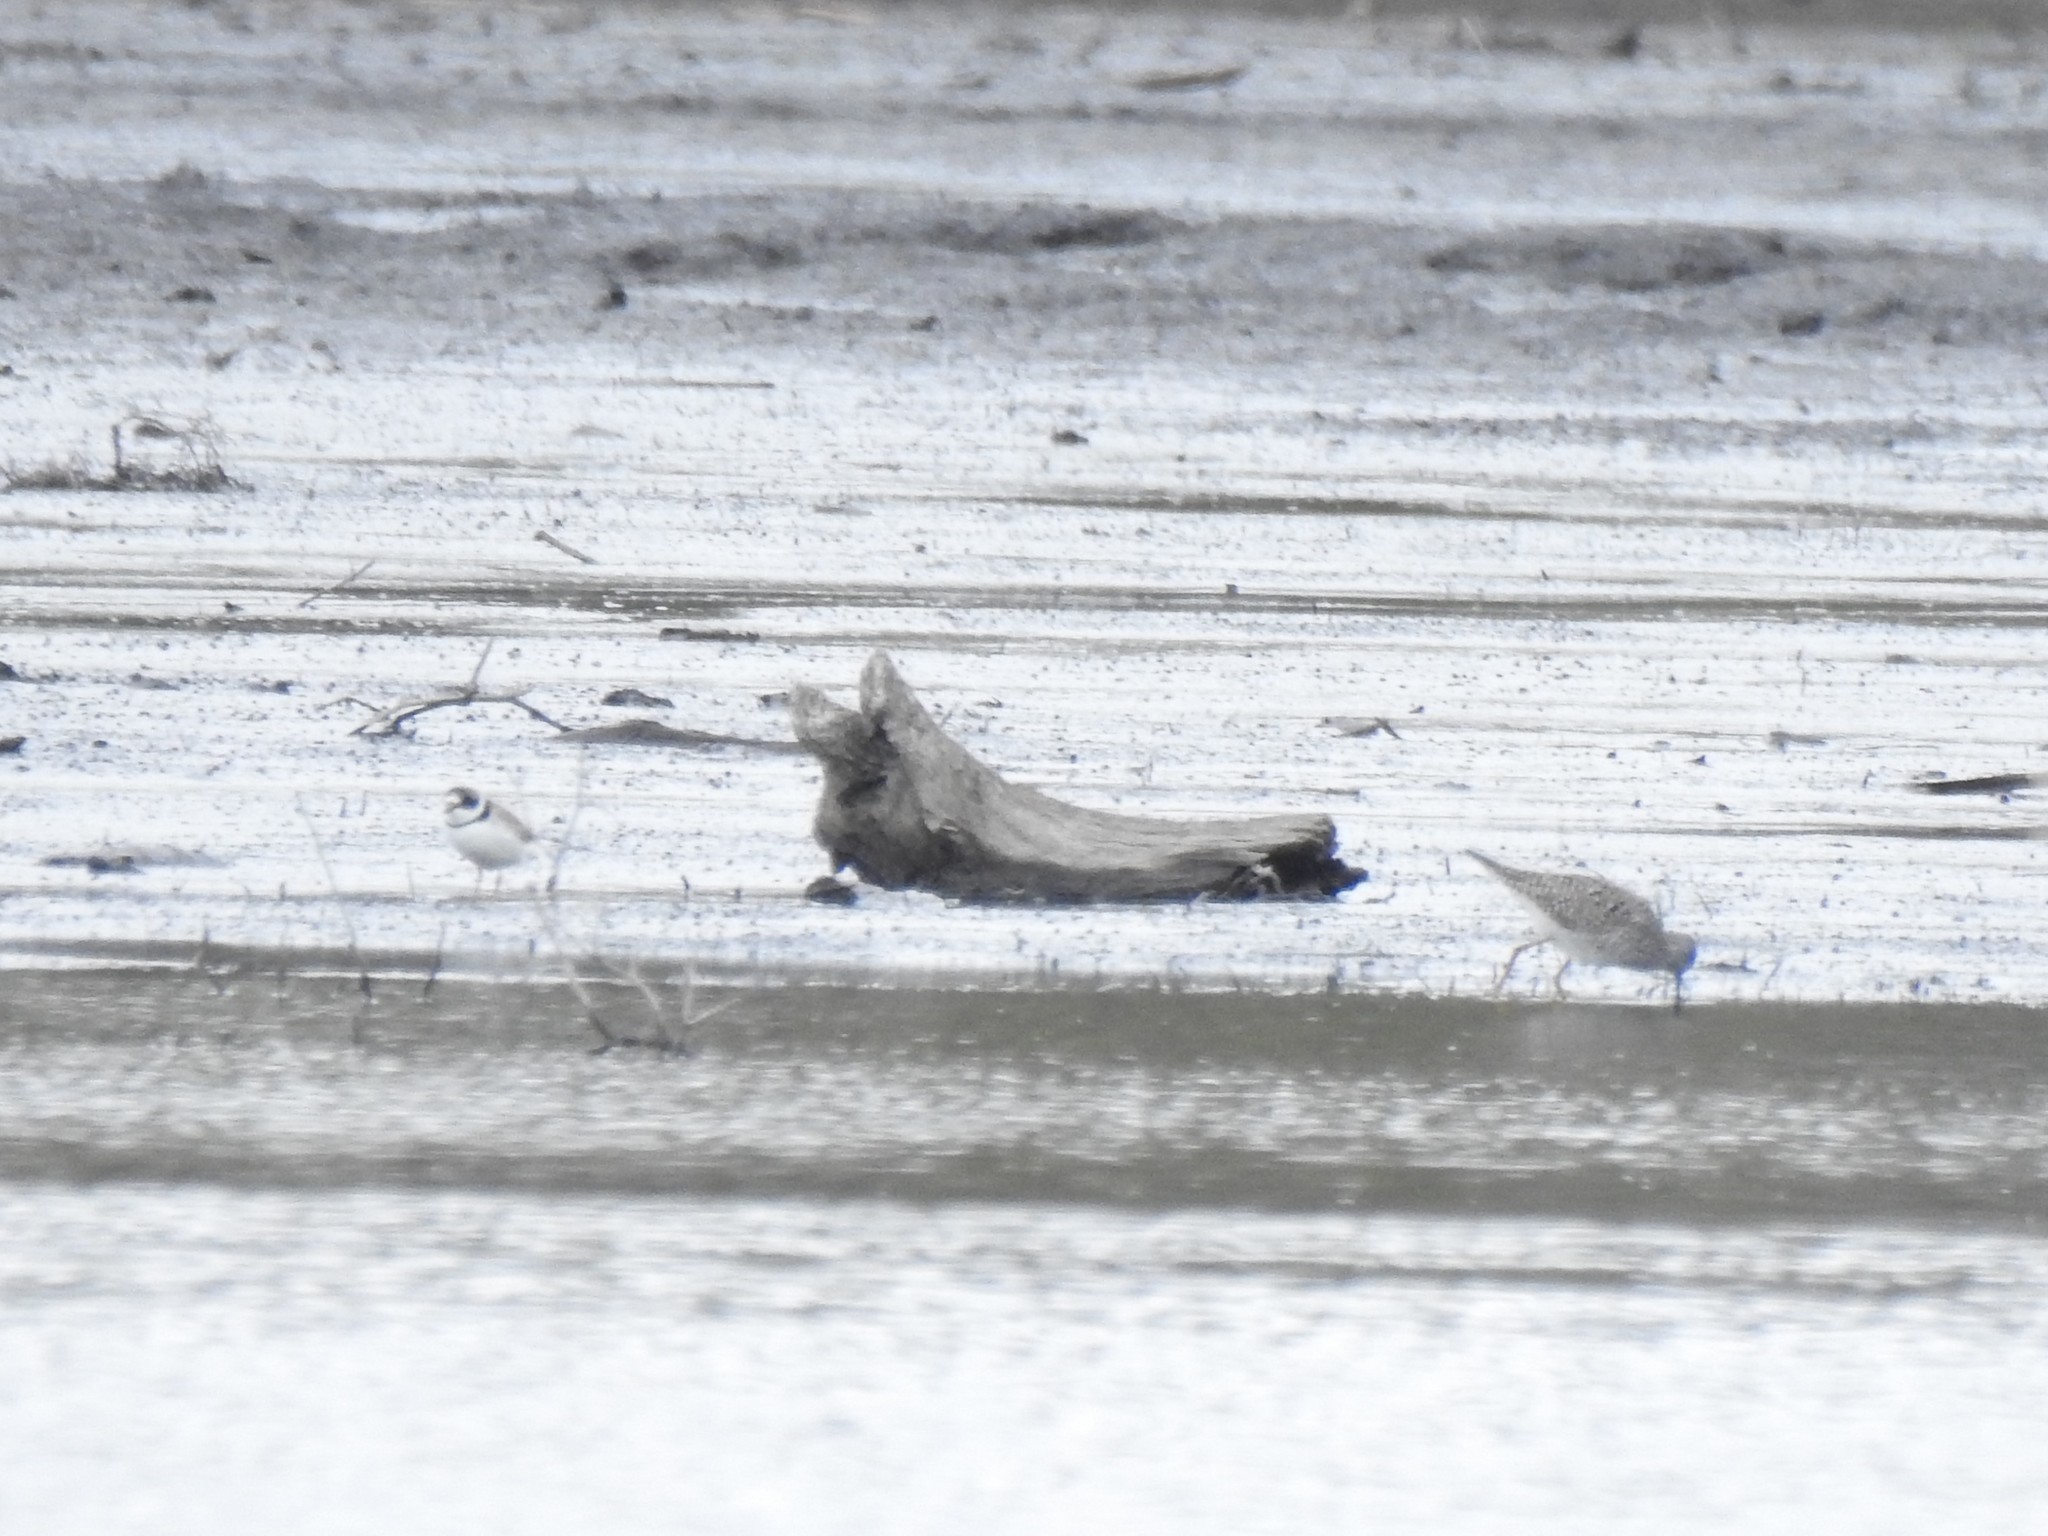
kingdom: Animalia
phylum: Chordata
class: Aves
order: Charadriiformes
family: Charadriidae
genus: Charadrius
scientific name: Charadrius semipalmatus
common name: Semipalmated plover
